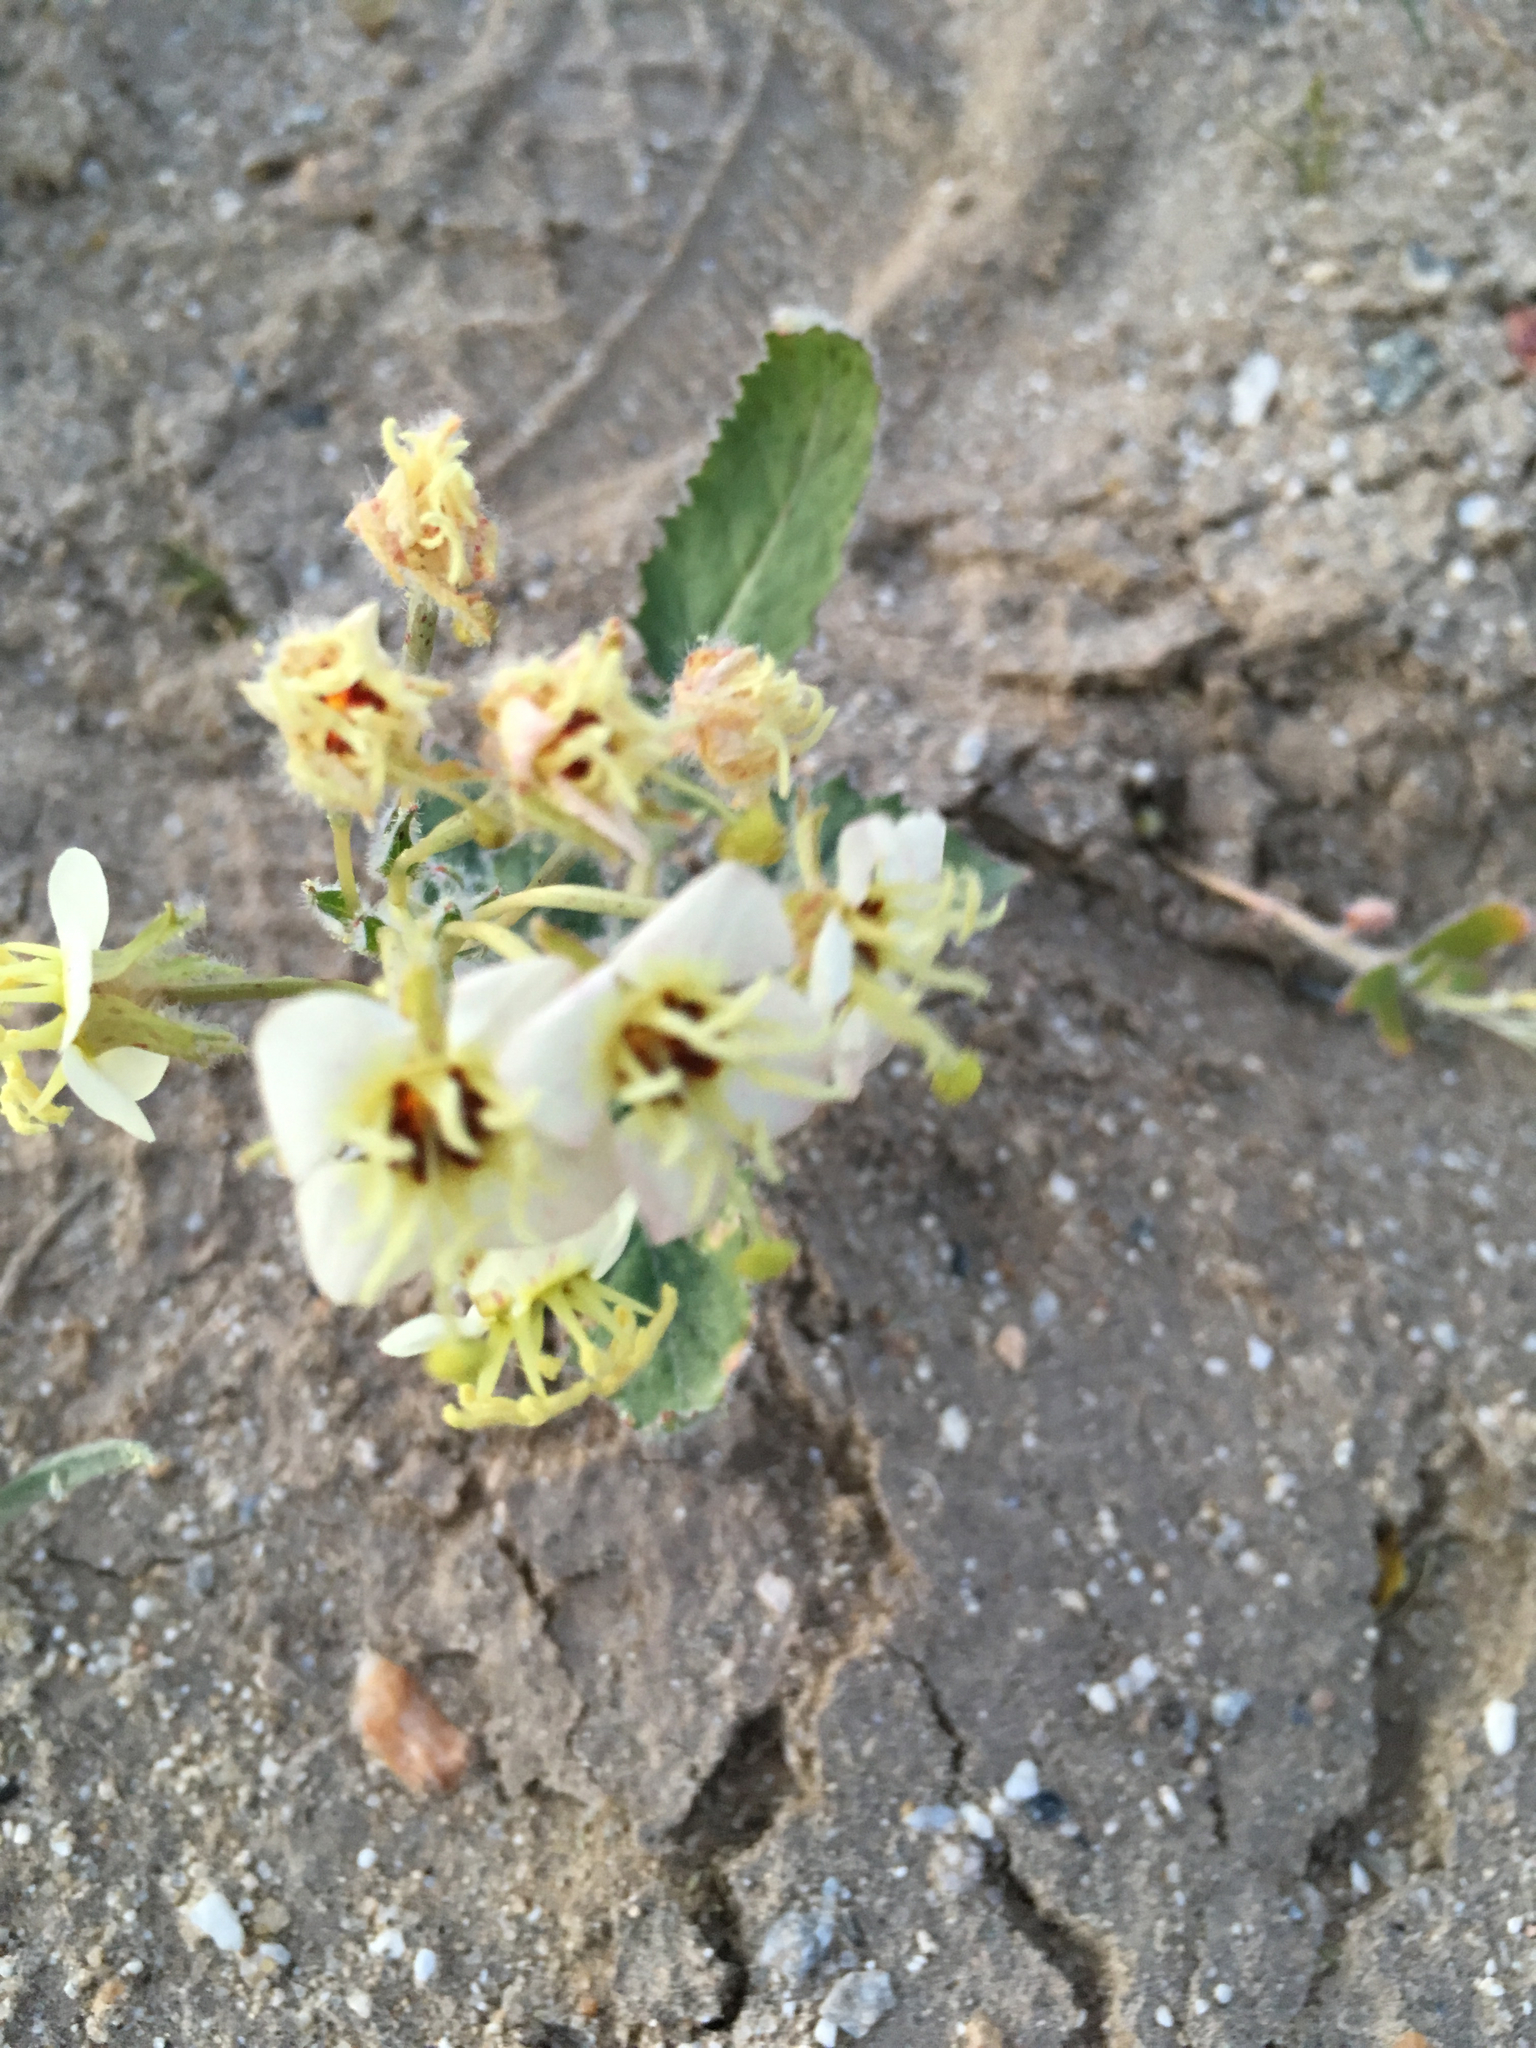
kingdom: Plantae
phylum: Tracheophyta
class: Magnoliopsida
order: Myrtales
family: Onagraceae
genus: Chylismia
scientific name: Chylismia claviformis
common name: Browneyes
